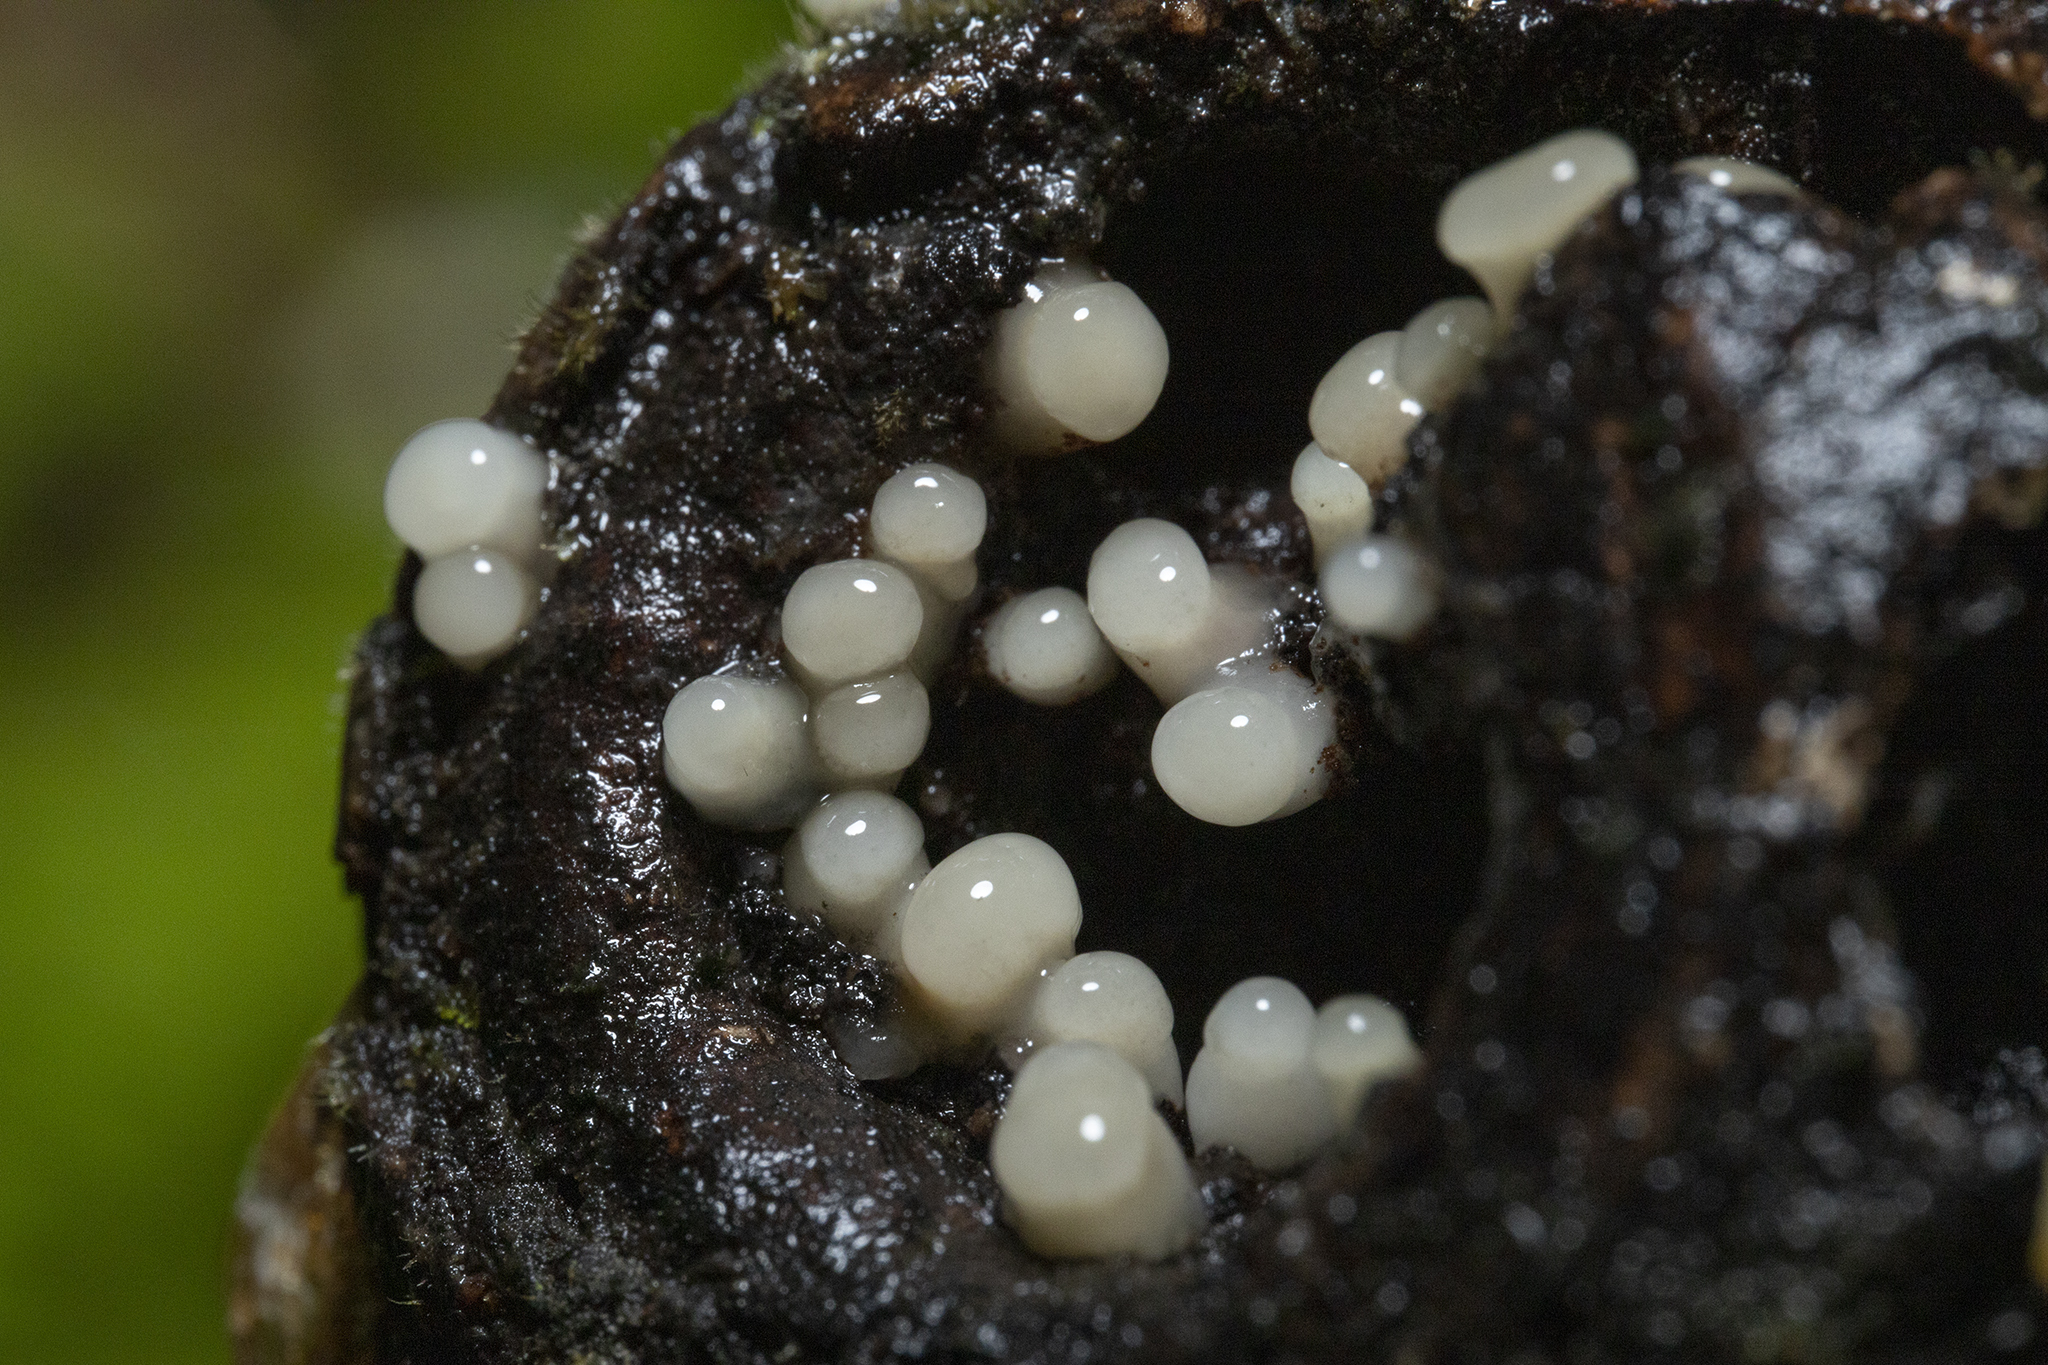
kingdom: Fungi
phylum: Basidiomycota
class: Atractiellomycetes
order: Atractiellales
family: Phleogenaceae
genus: Helicogloea
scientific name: Helicogloea compressa
